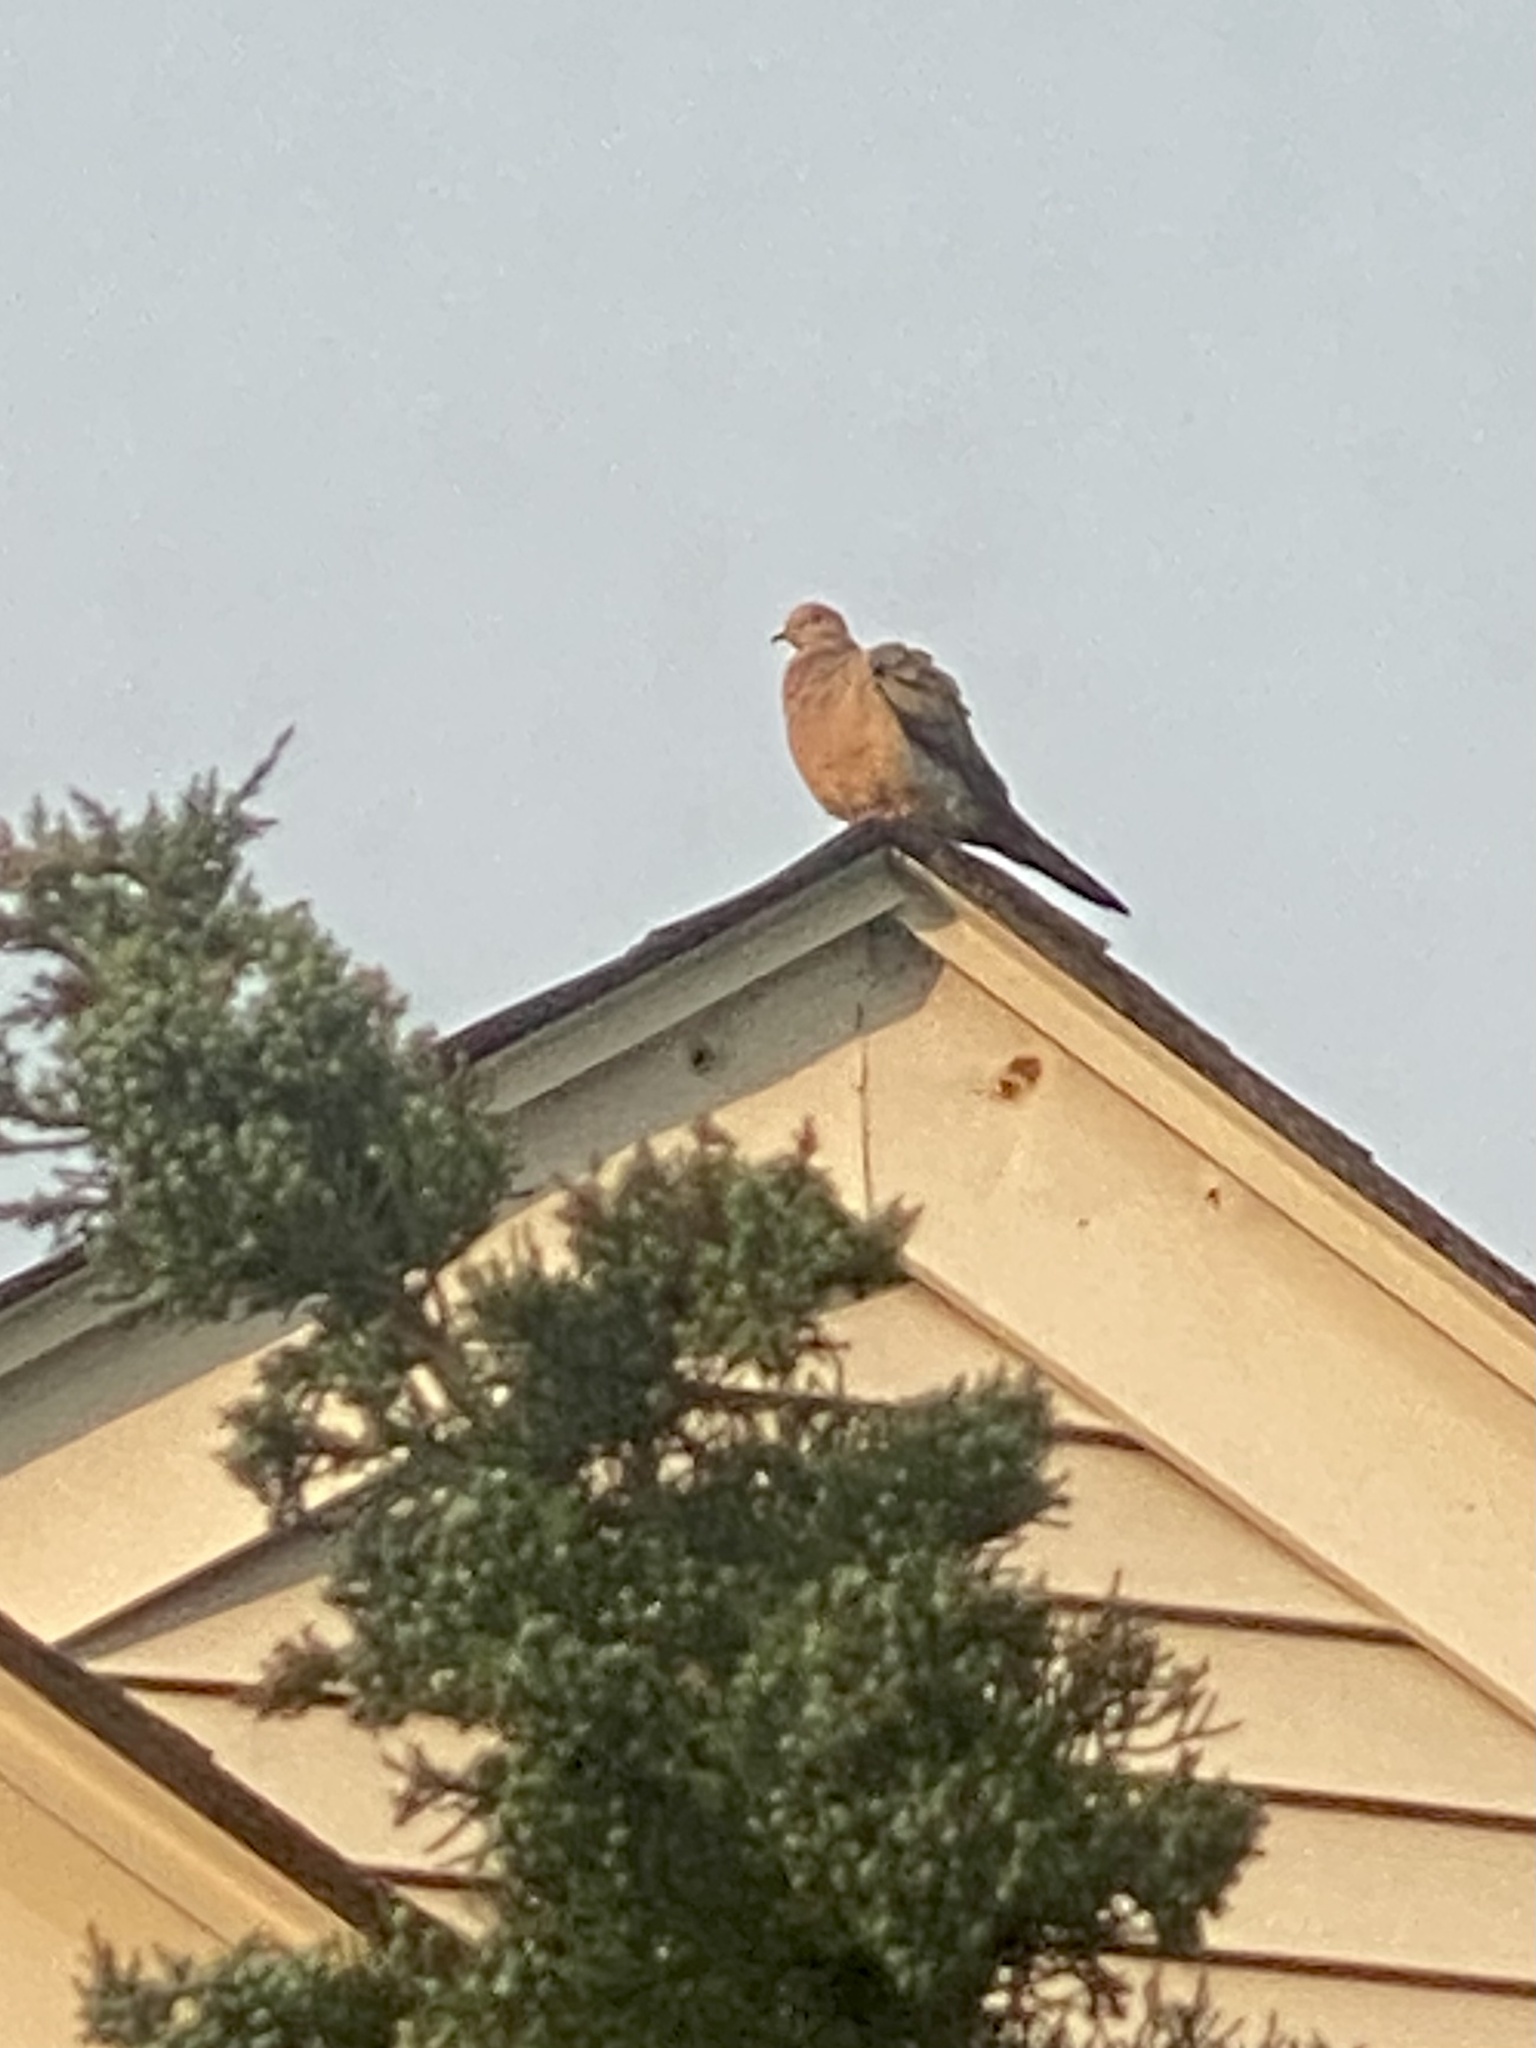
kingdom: Animalia
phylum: Chordata
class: Aves
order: Columbiformes
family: Columbidae
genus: Zenaida
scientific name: Zenaida macroura
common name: Mourning dove
